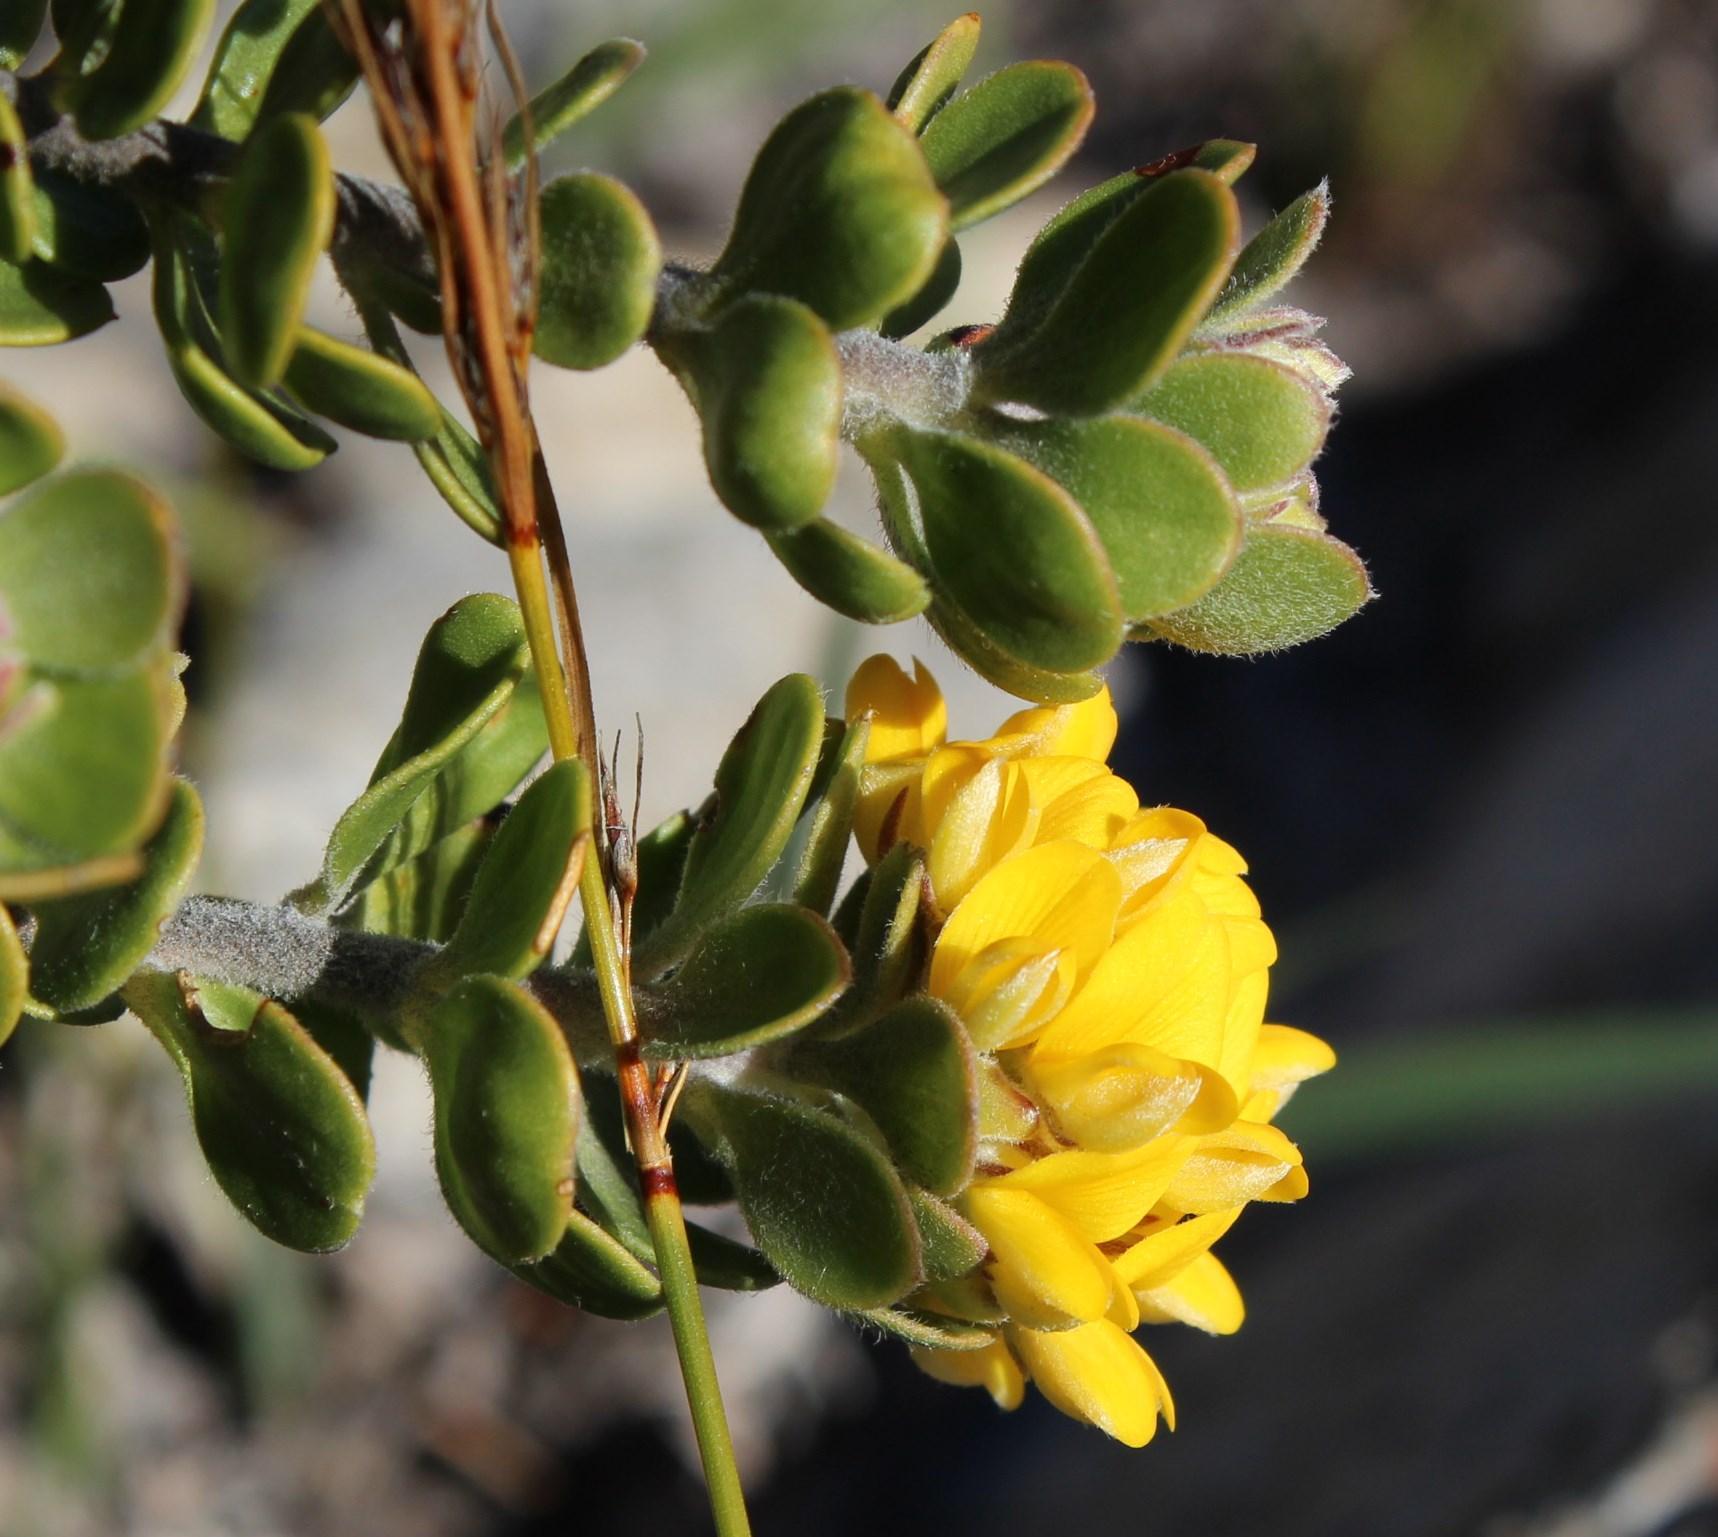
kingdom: Plantae
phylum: Tracheophyta
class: Magnoliopsida
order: Fabales
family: Fabaceae
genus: Aspalathus
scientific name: Aspalathus securifolia
